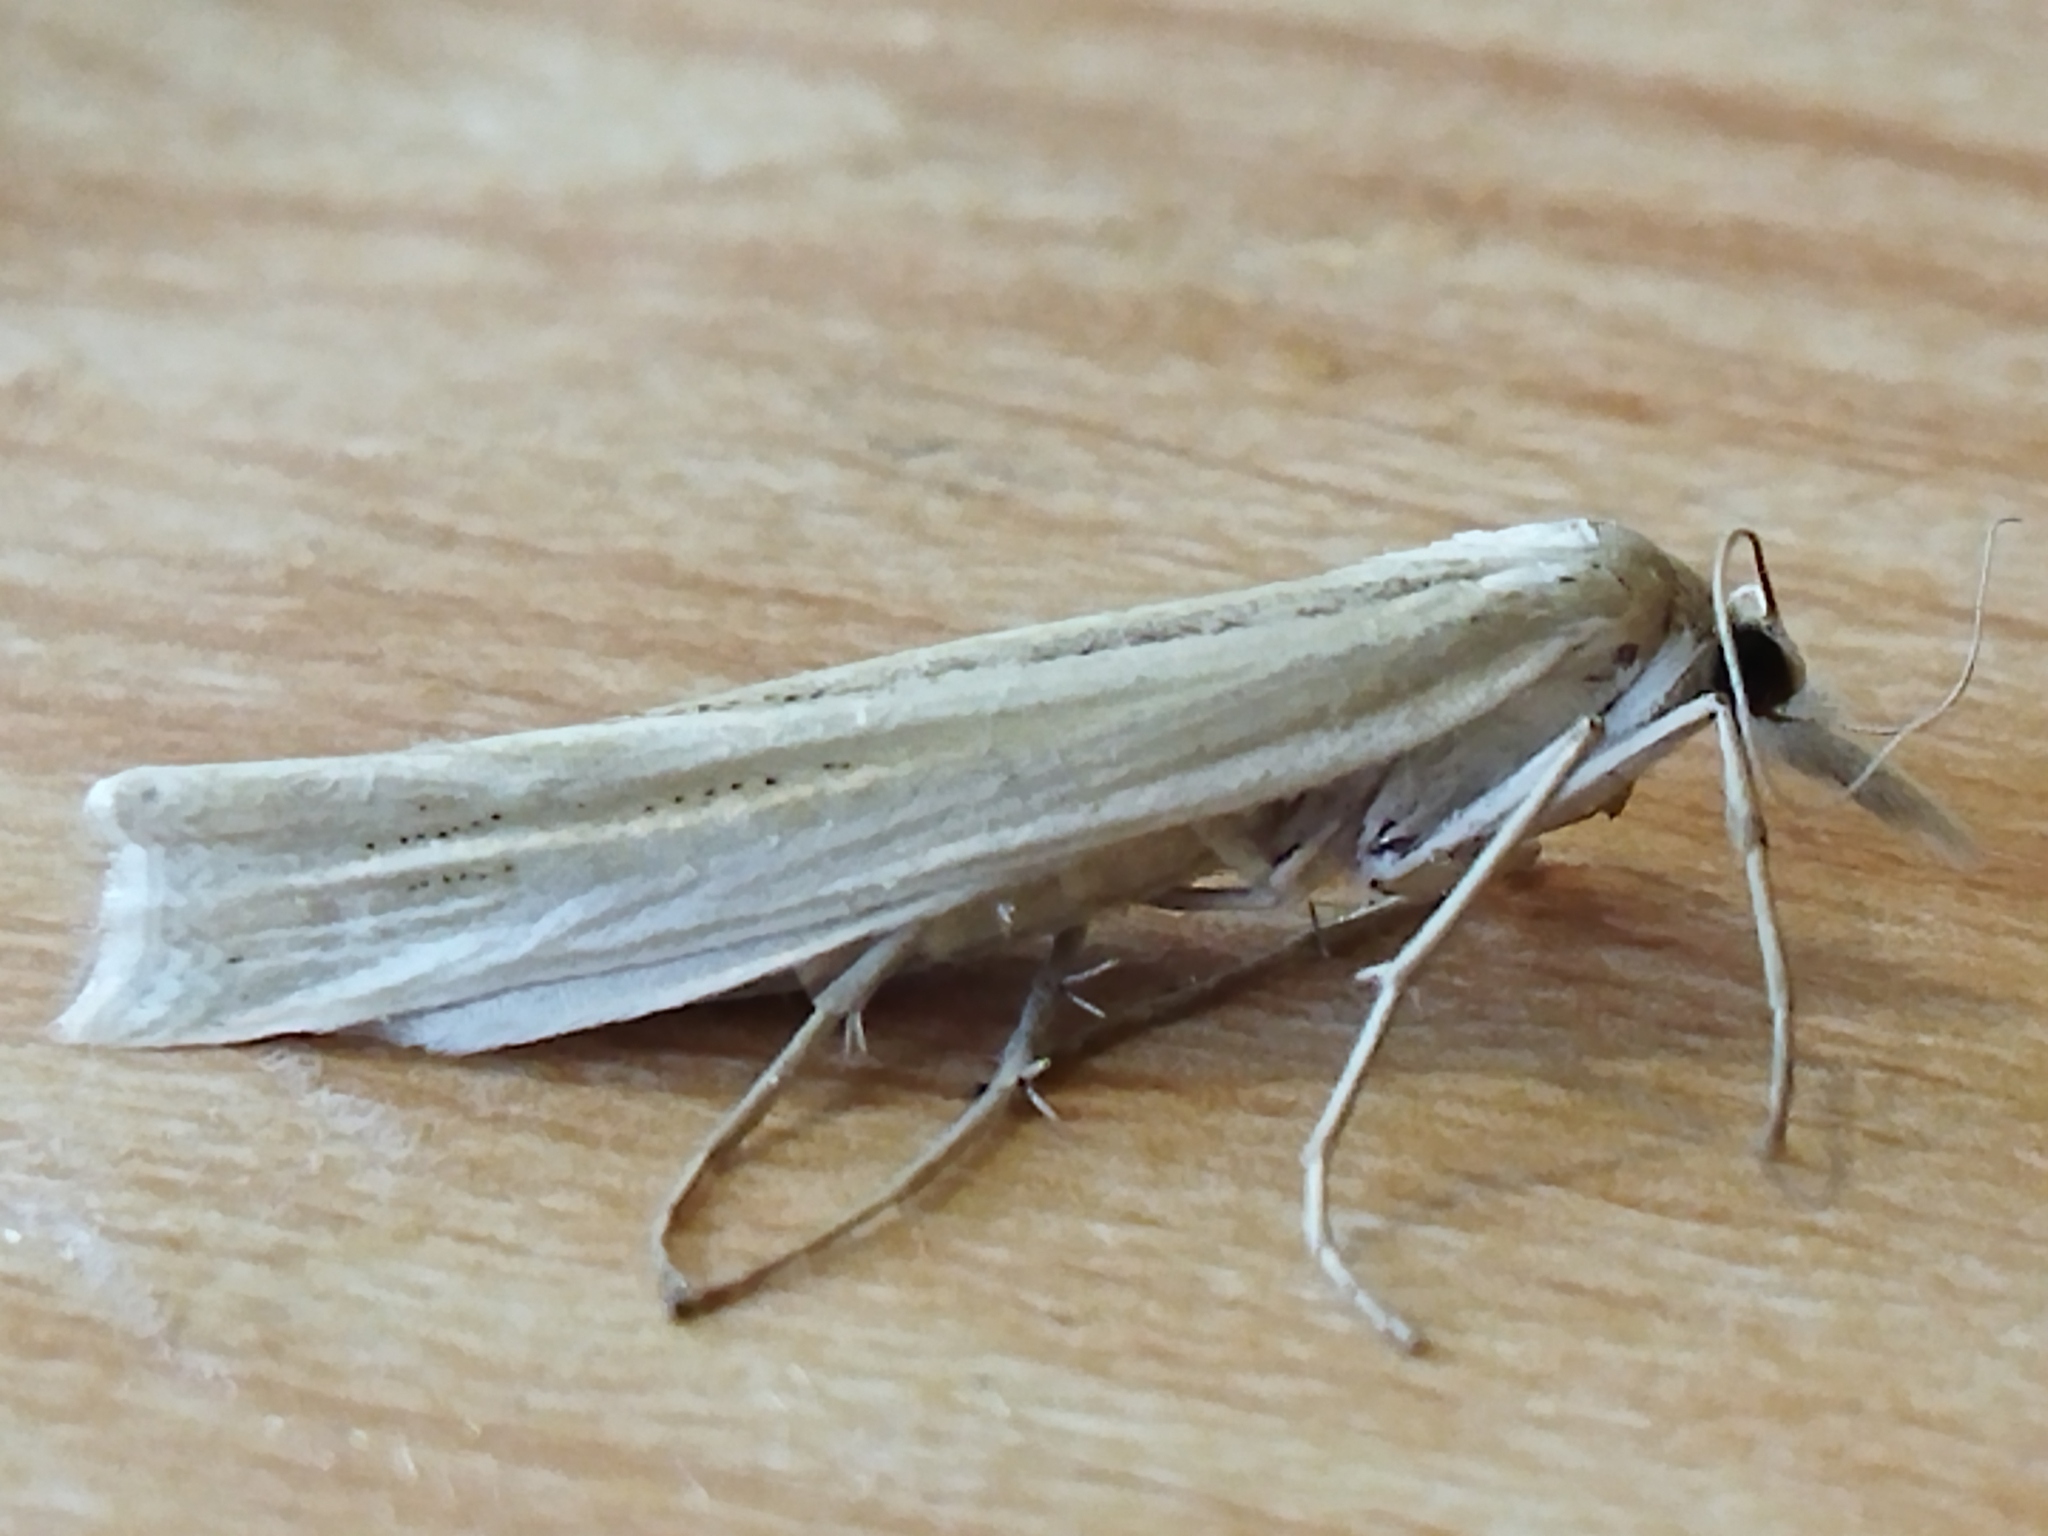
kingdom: Animalia
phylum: Arthropoda
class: Insecta
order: Lepidoptera
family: Crambidae
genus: Ancylolomia
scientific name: Ancylolomia palpella
